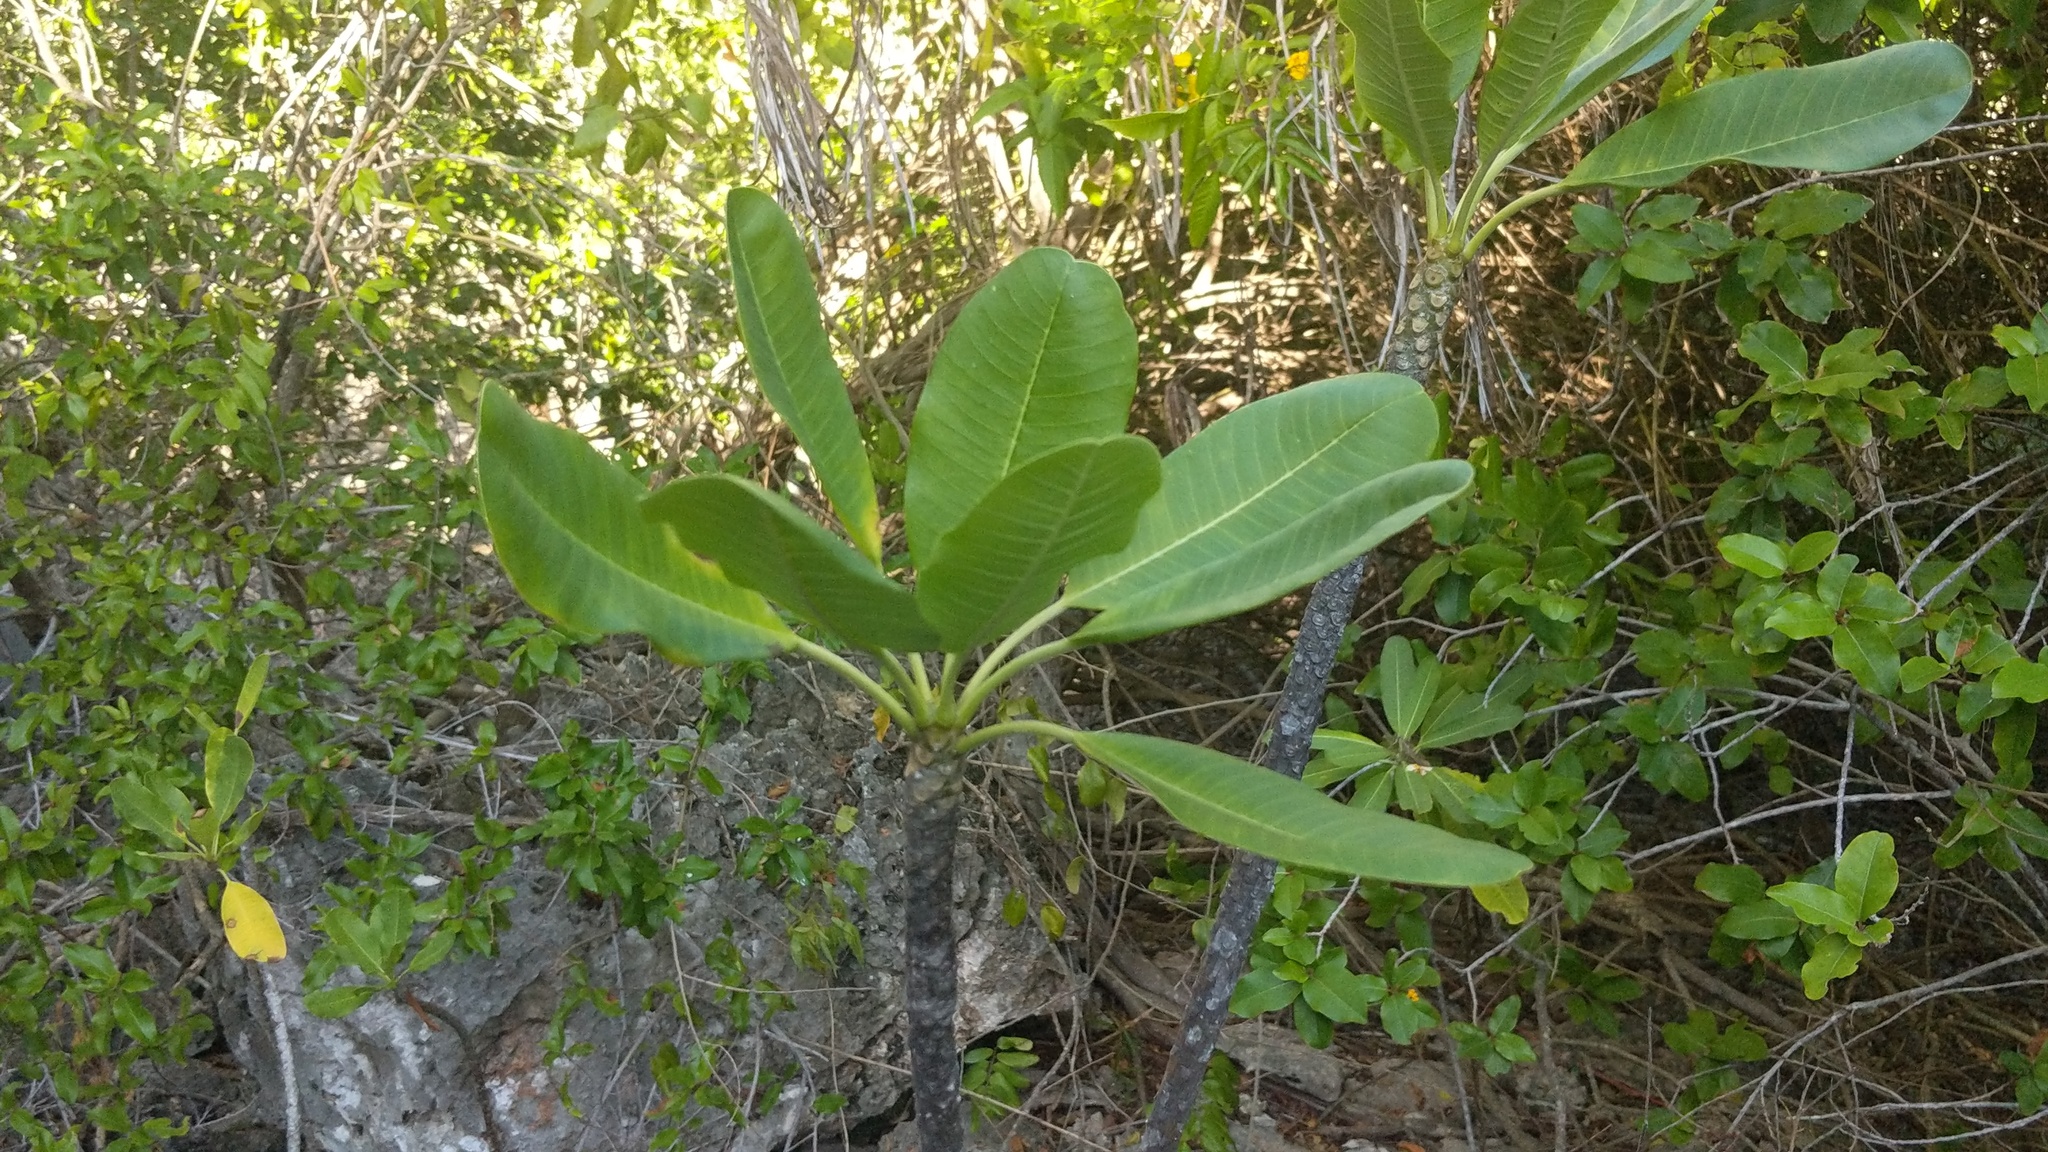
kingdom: Plantae
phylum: Tracheophyta
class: Magnoliopsida
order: Gentianales
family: Apocynaceae
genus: Plumeria
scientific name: Plumeria obtusa
